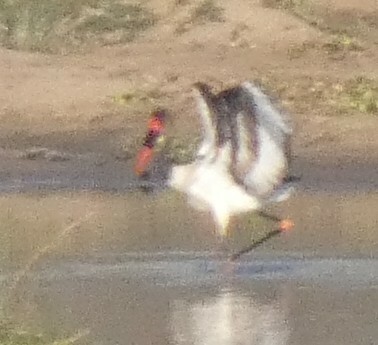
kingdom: Animalia
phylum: Chordata
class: Aves
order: Ciconiiformes
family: Ciconiidae
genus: Ephippiorhynchus
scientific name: Ephippiorhynchus senegalensis
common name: Saddle-billed stork
